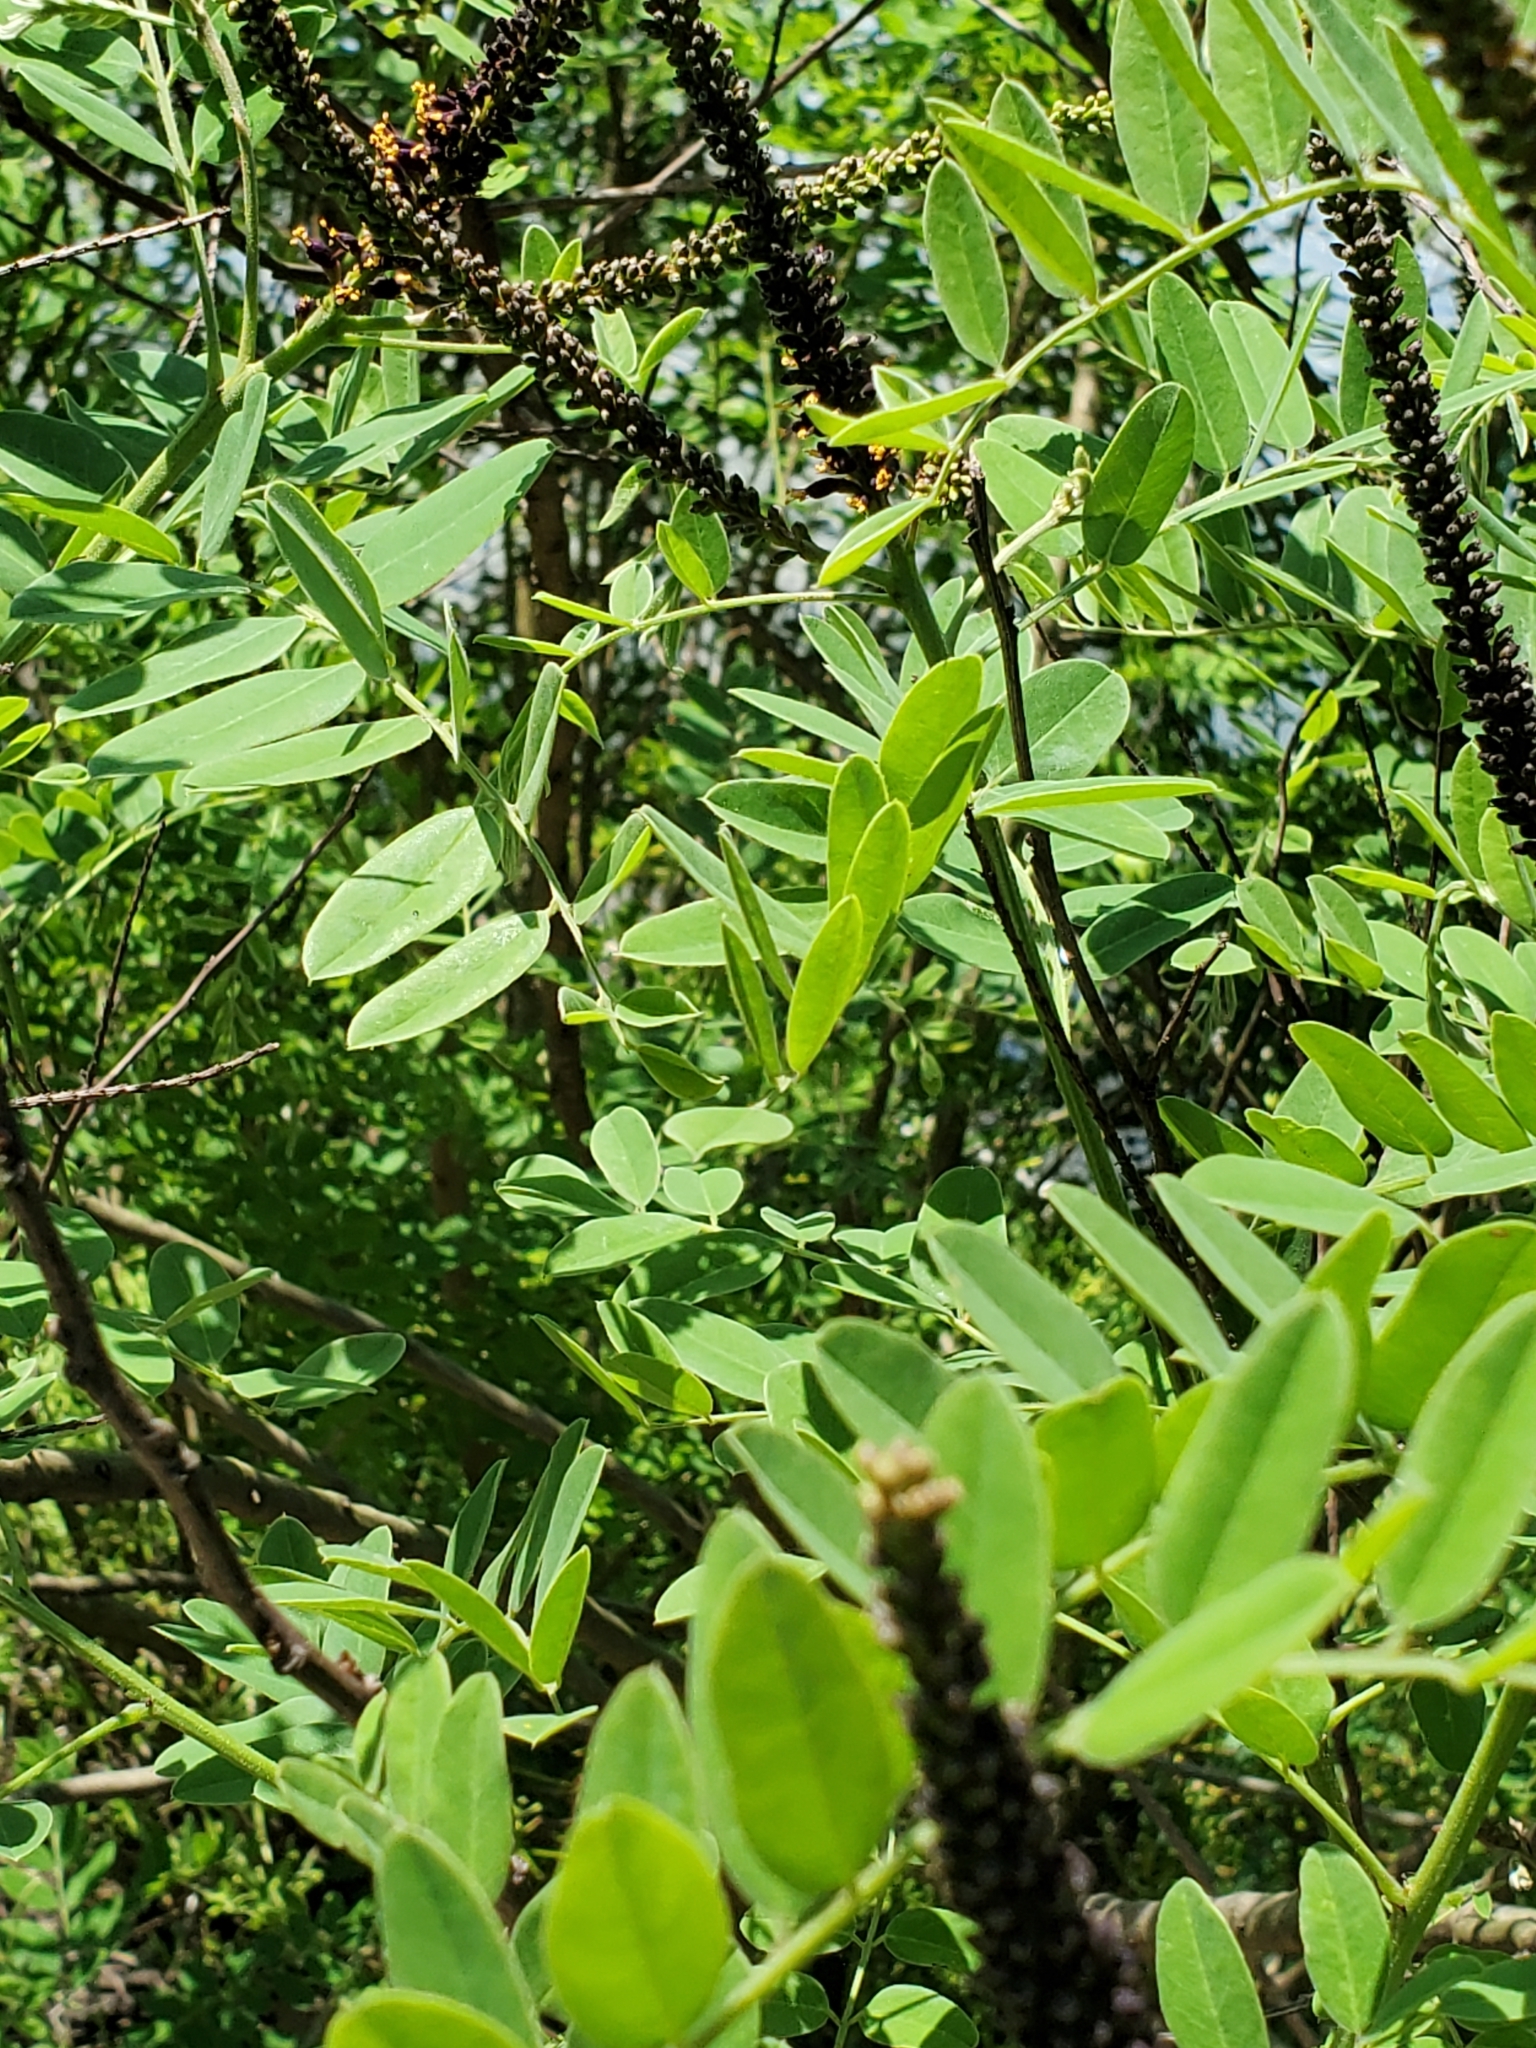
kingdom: Plantae
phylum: Tracheophyta
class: Magnoliopsida
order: Fabales
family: Fabaceae
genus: Amorpha
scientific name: Amorpha fruticosa
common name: False indigo
